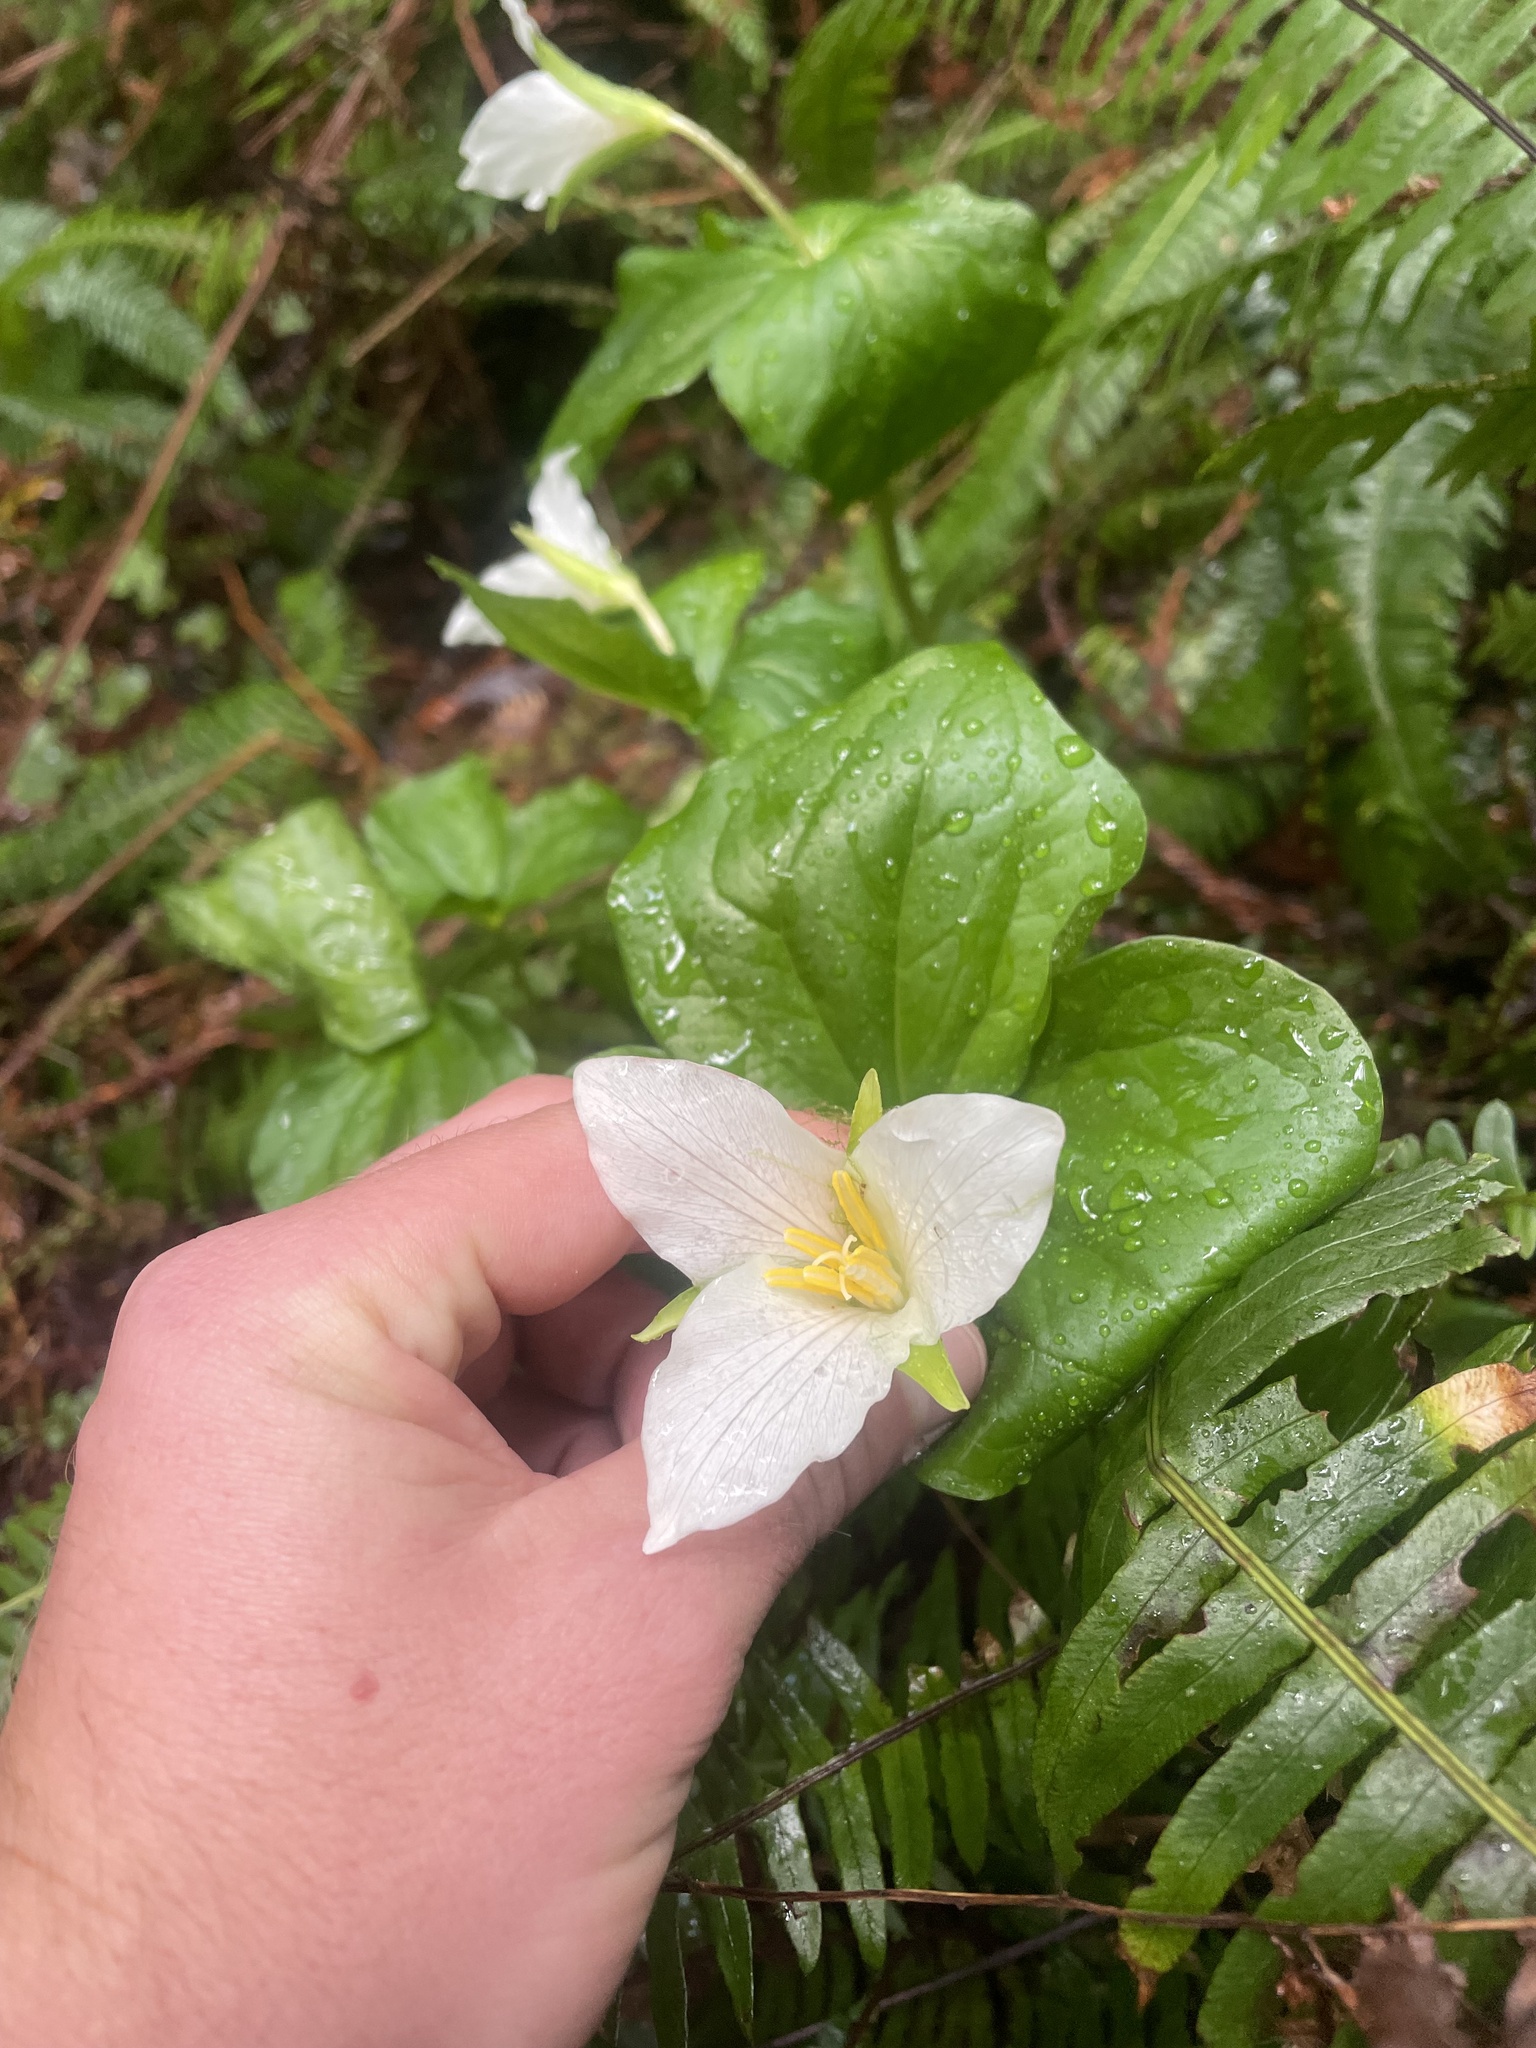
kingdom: Plantae
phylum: Tracheophyta
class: Liliopsida
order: Liliales
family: Melanthiaceae
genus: Trillium
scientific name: Trillium ovatum
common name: Pacific trillium
